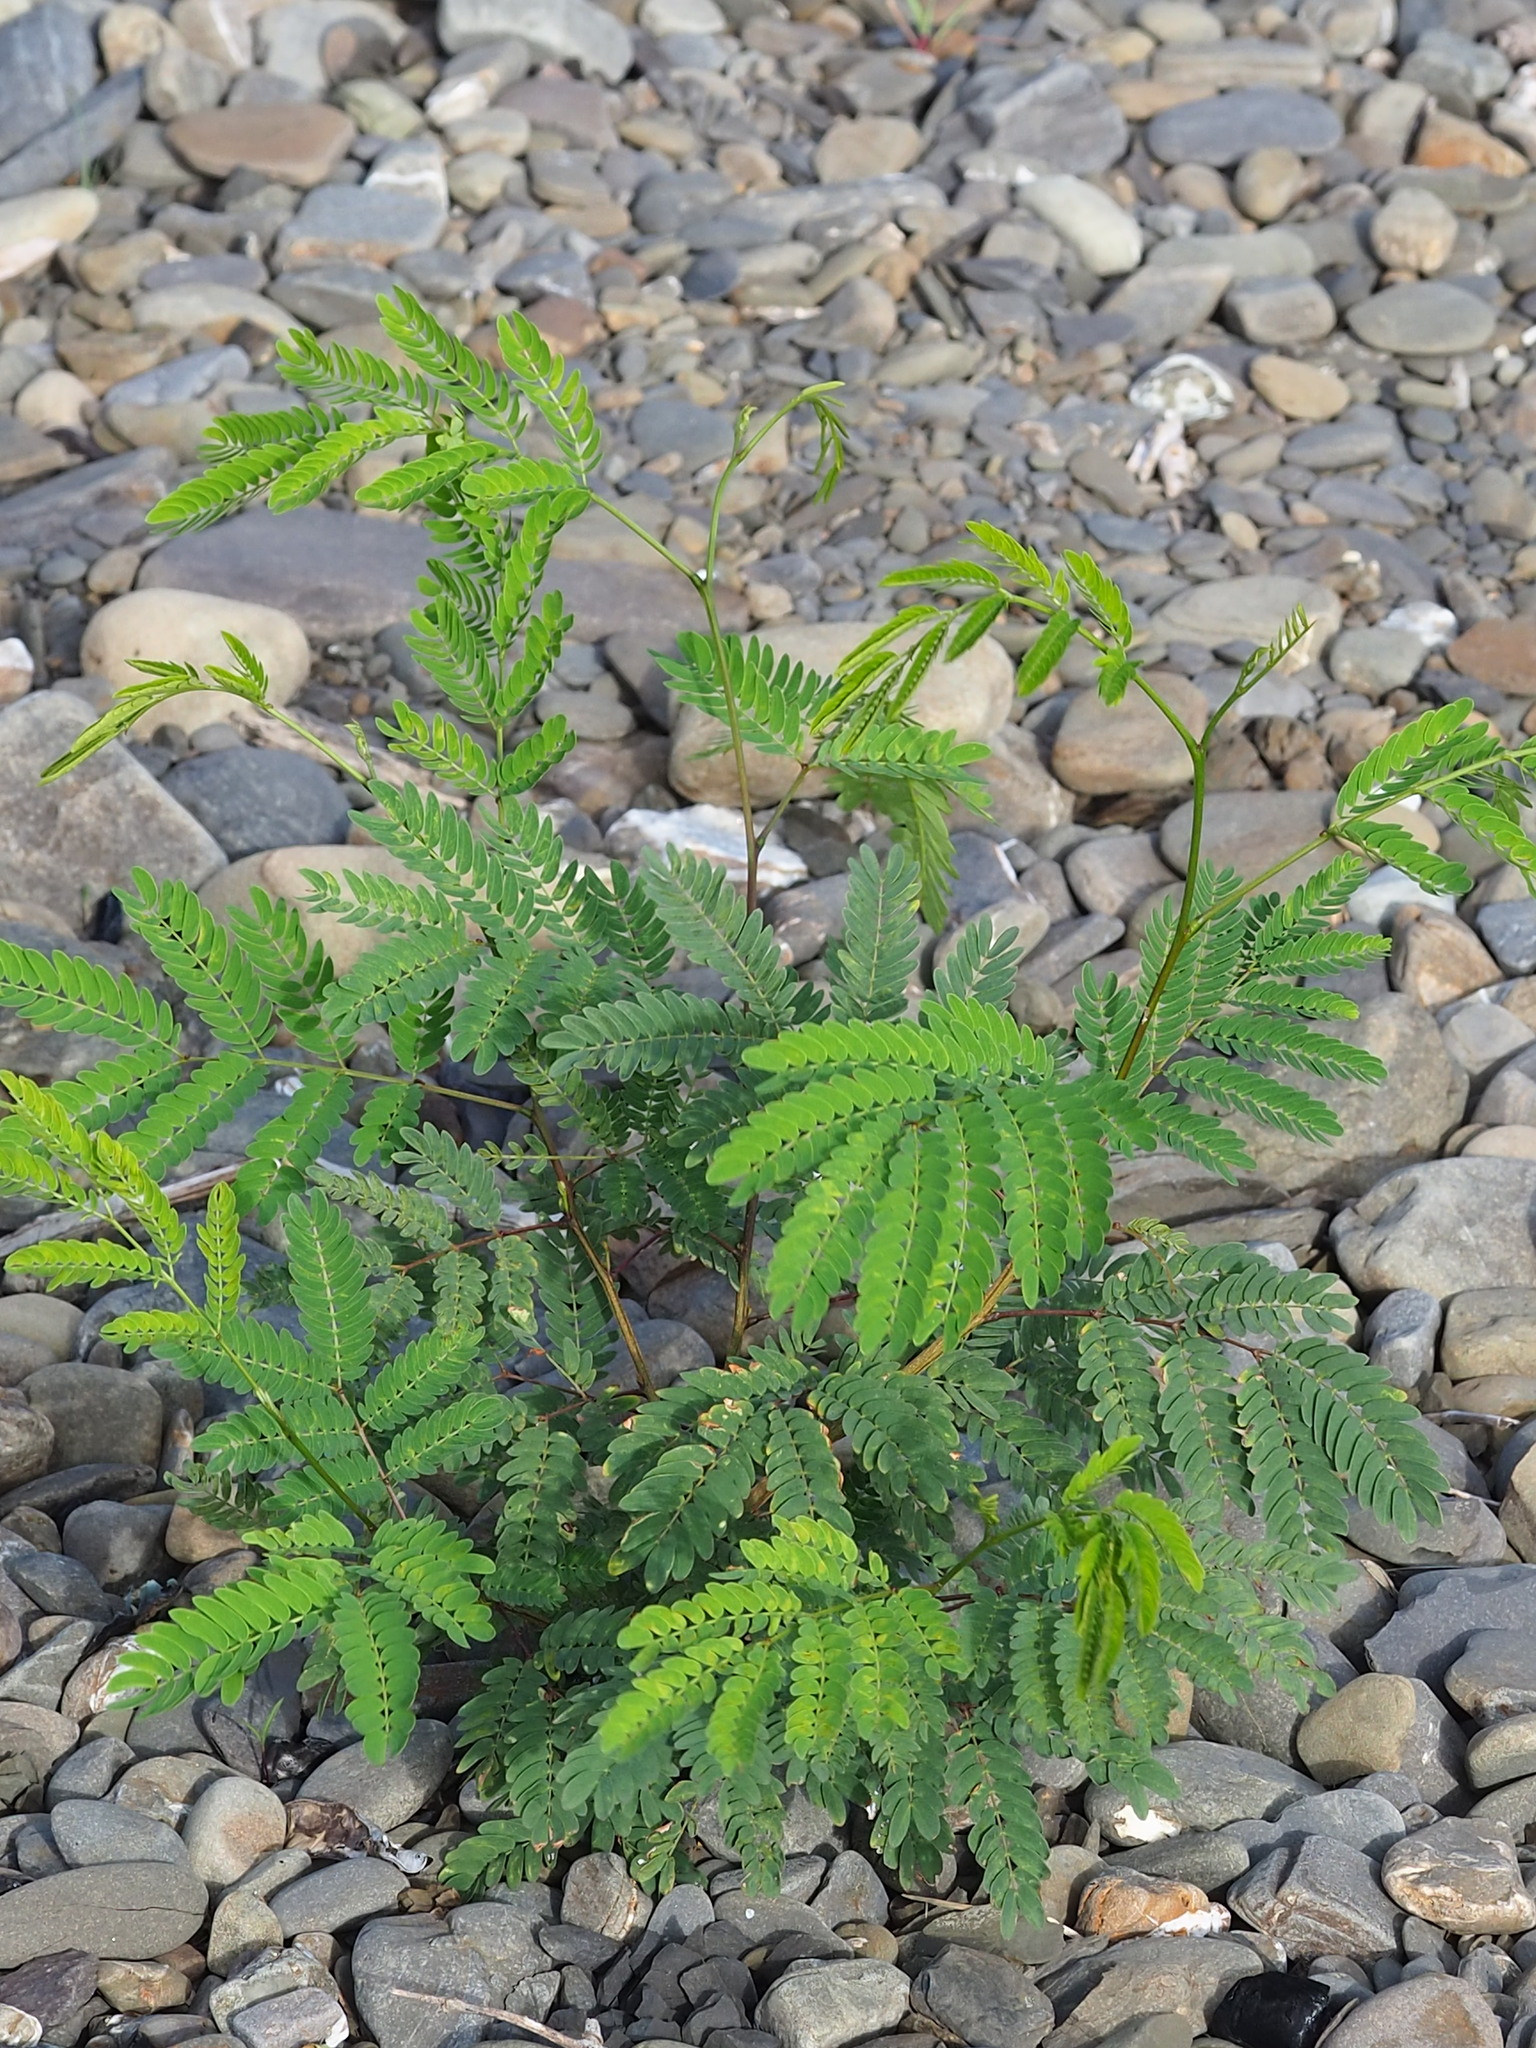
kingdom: Plantae
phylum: Tracheophyta
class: Magnoliopsida
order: Fabales
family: Fabaceae
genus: Leucaena
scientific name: Leucaena leucocephala
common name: White leadtree
